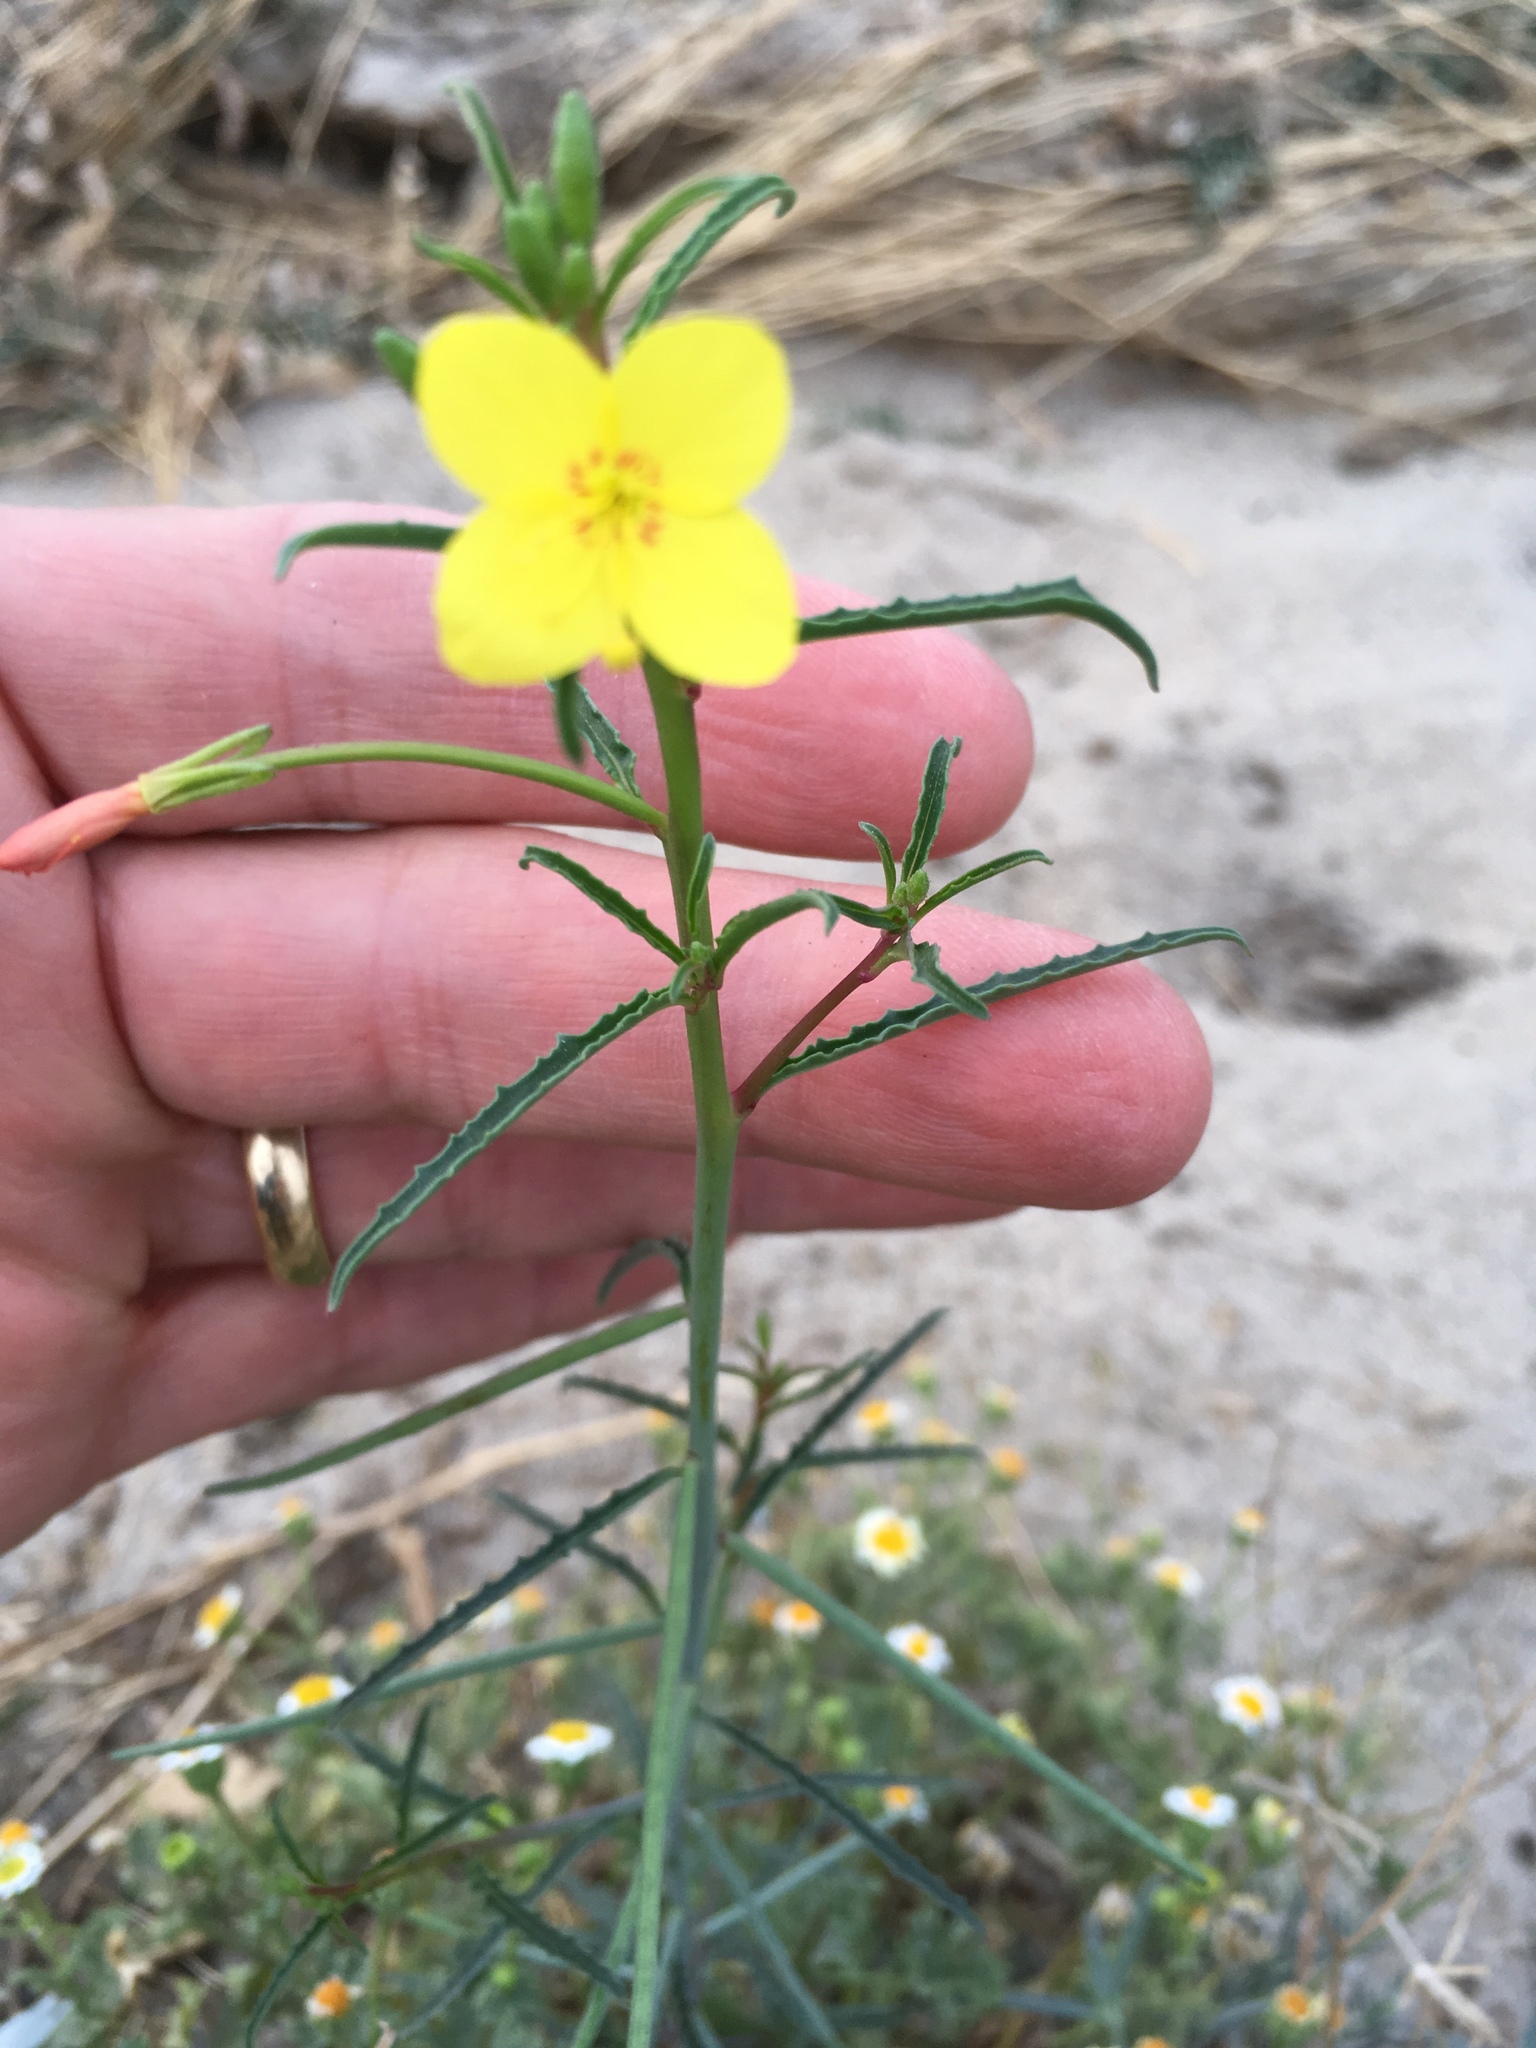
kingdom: Plantae
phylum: Tracheophyta
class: Magnoliopsida
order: Myrtales
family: Onagraceae
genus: Eulobus
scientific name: Eulobus californicus
